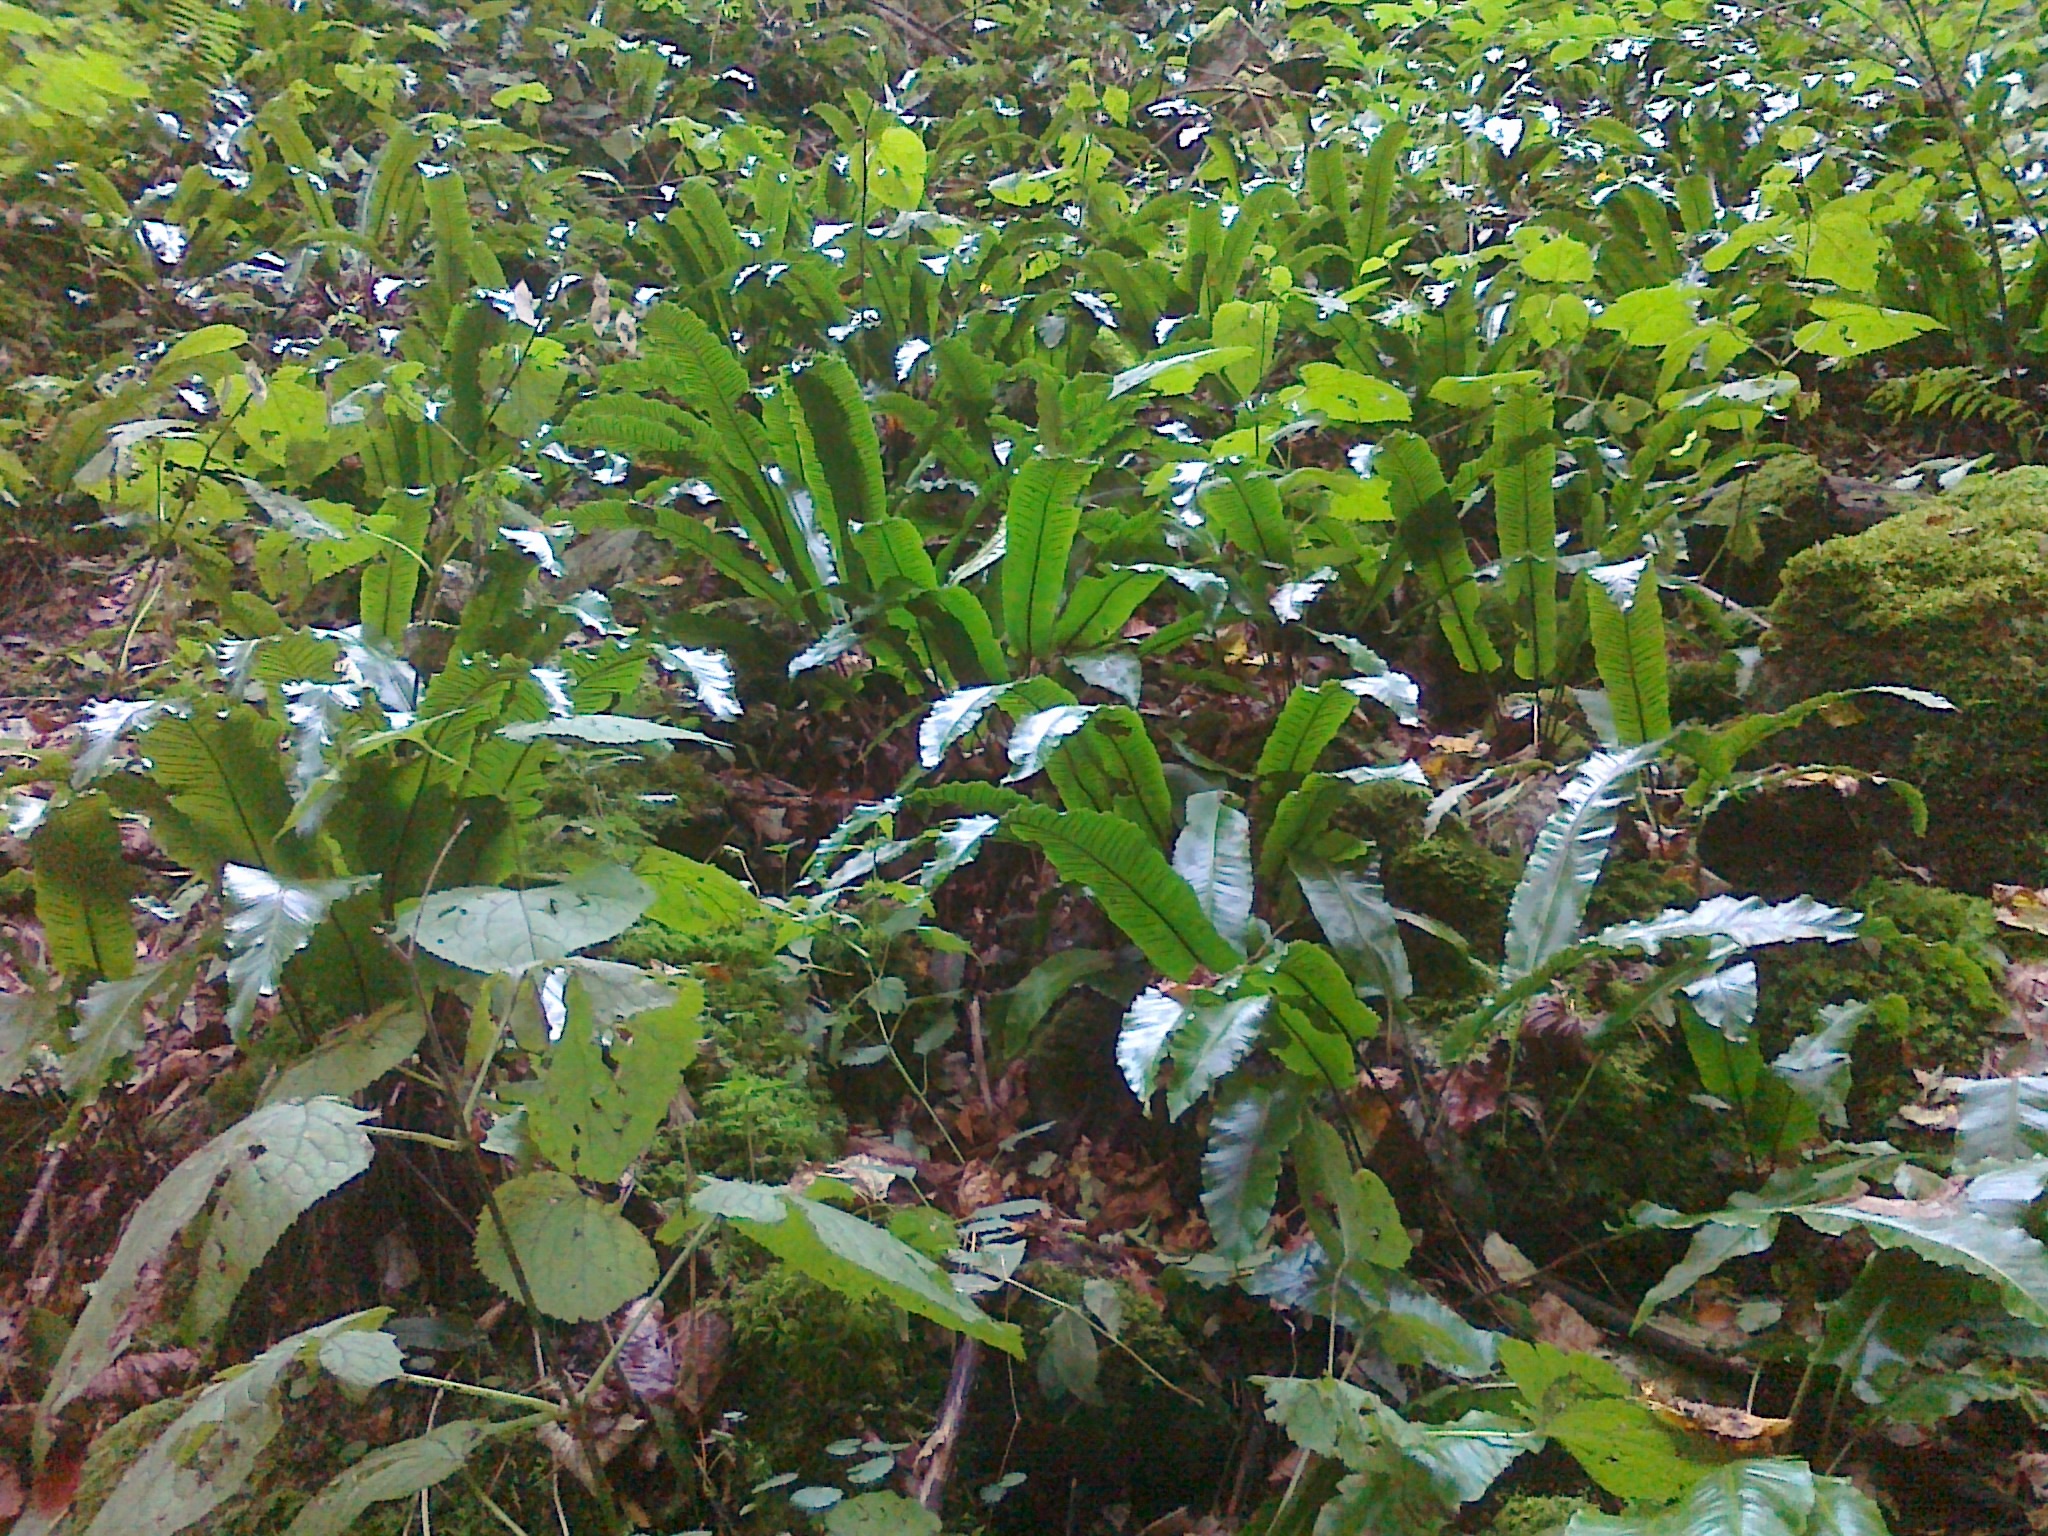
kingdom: Plantae
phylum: Tracheophyta
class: Polypodiopsida
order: Polypodiales
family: Aspleniaceae
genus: Asplenium
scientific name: Asplenium scolopendrium
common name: Hart's-tongue fern
